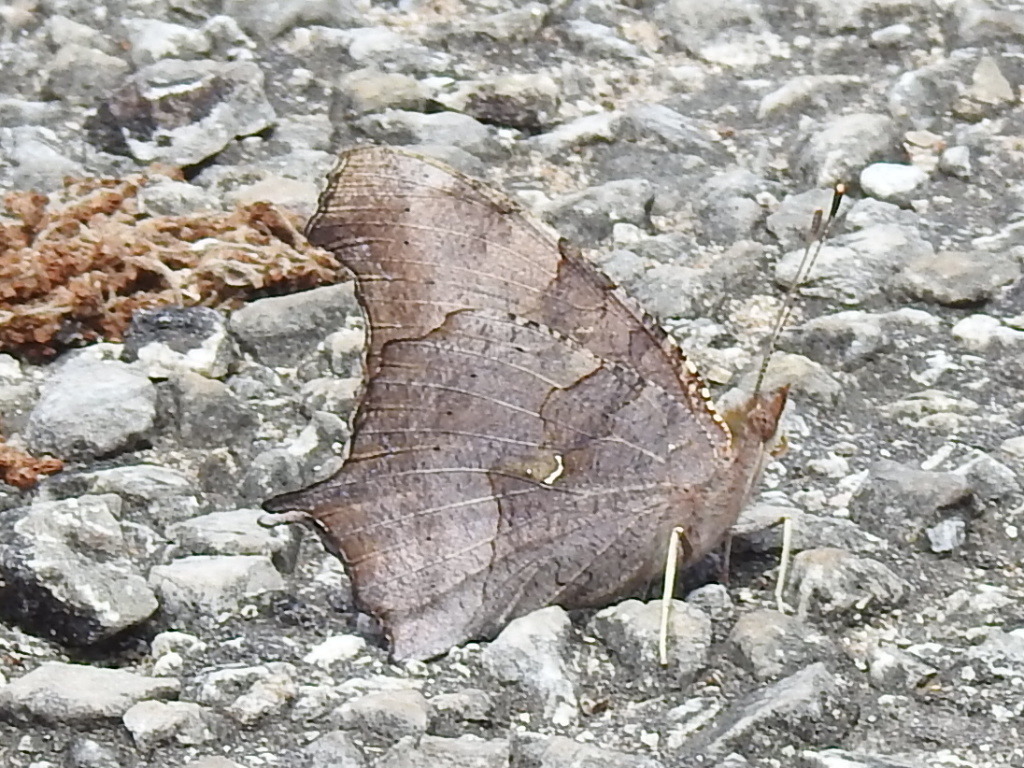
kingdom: Animalia
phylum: Arthropoda
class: Insecta
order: Lepidoptera
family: Nymphalidae
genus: Polygonia
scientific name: Polygonia interrogationis
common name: Question mark
